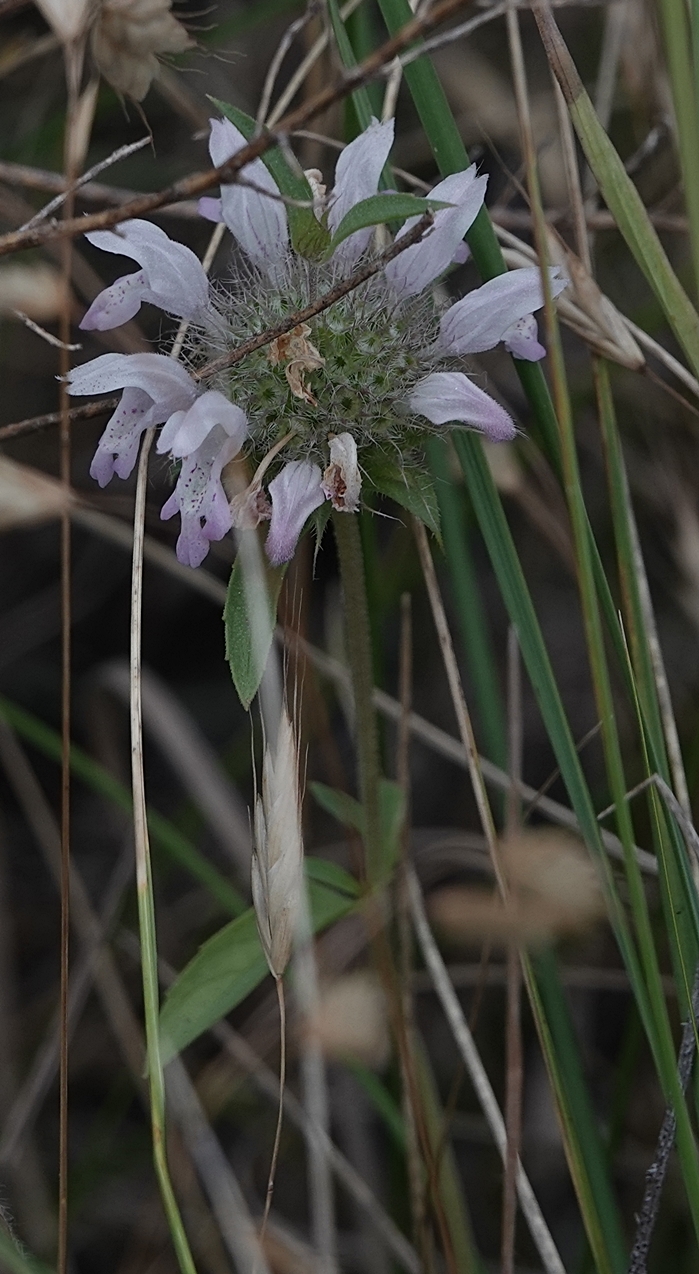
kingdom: Plantae
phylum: Tracheophyta
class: Magnoliopsida
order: Lamiales
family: Lamiaceae
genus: Monarda
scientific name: Monarda pectinata
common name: Plains beebalm
